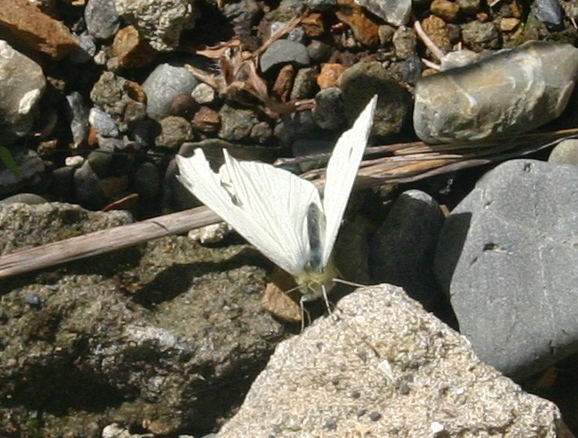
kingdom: Animalia
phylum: Arthropoda
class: Insecta
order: Lepidoptera
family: Pieridae
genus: Pieris
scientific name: Pieris rapae
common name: Small white
